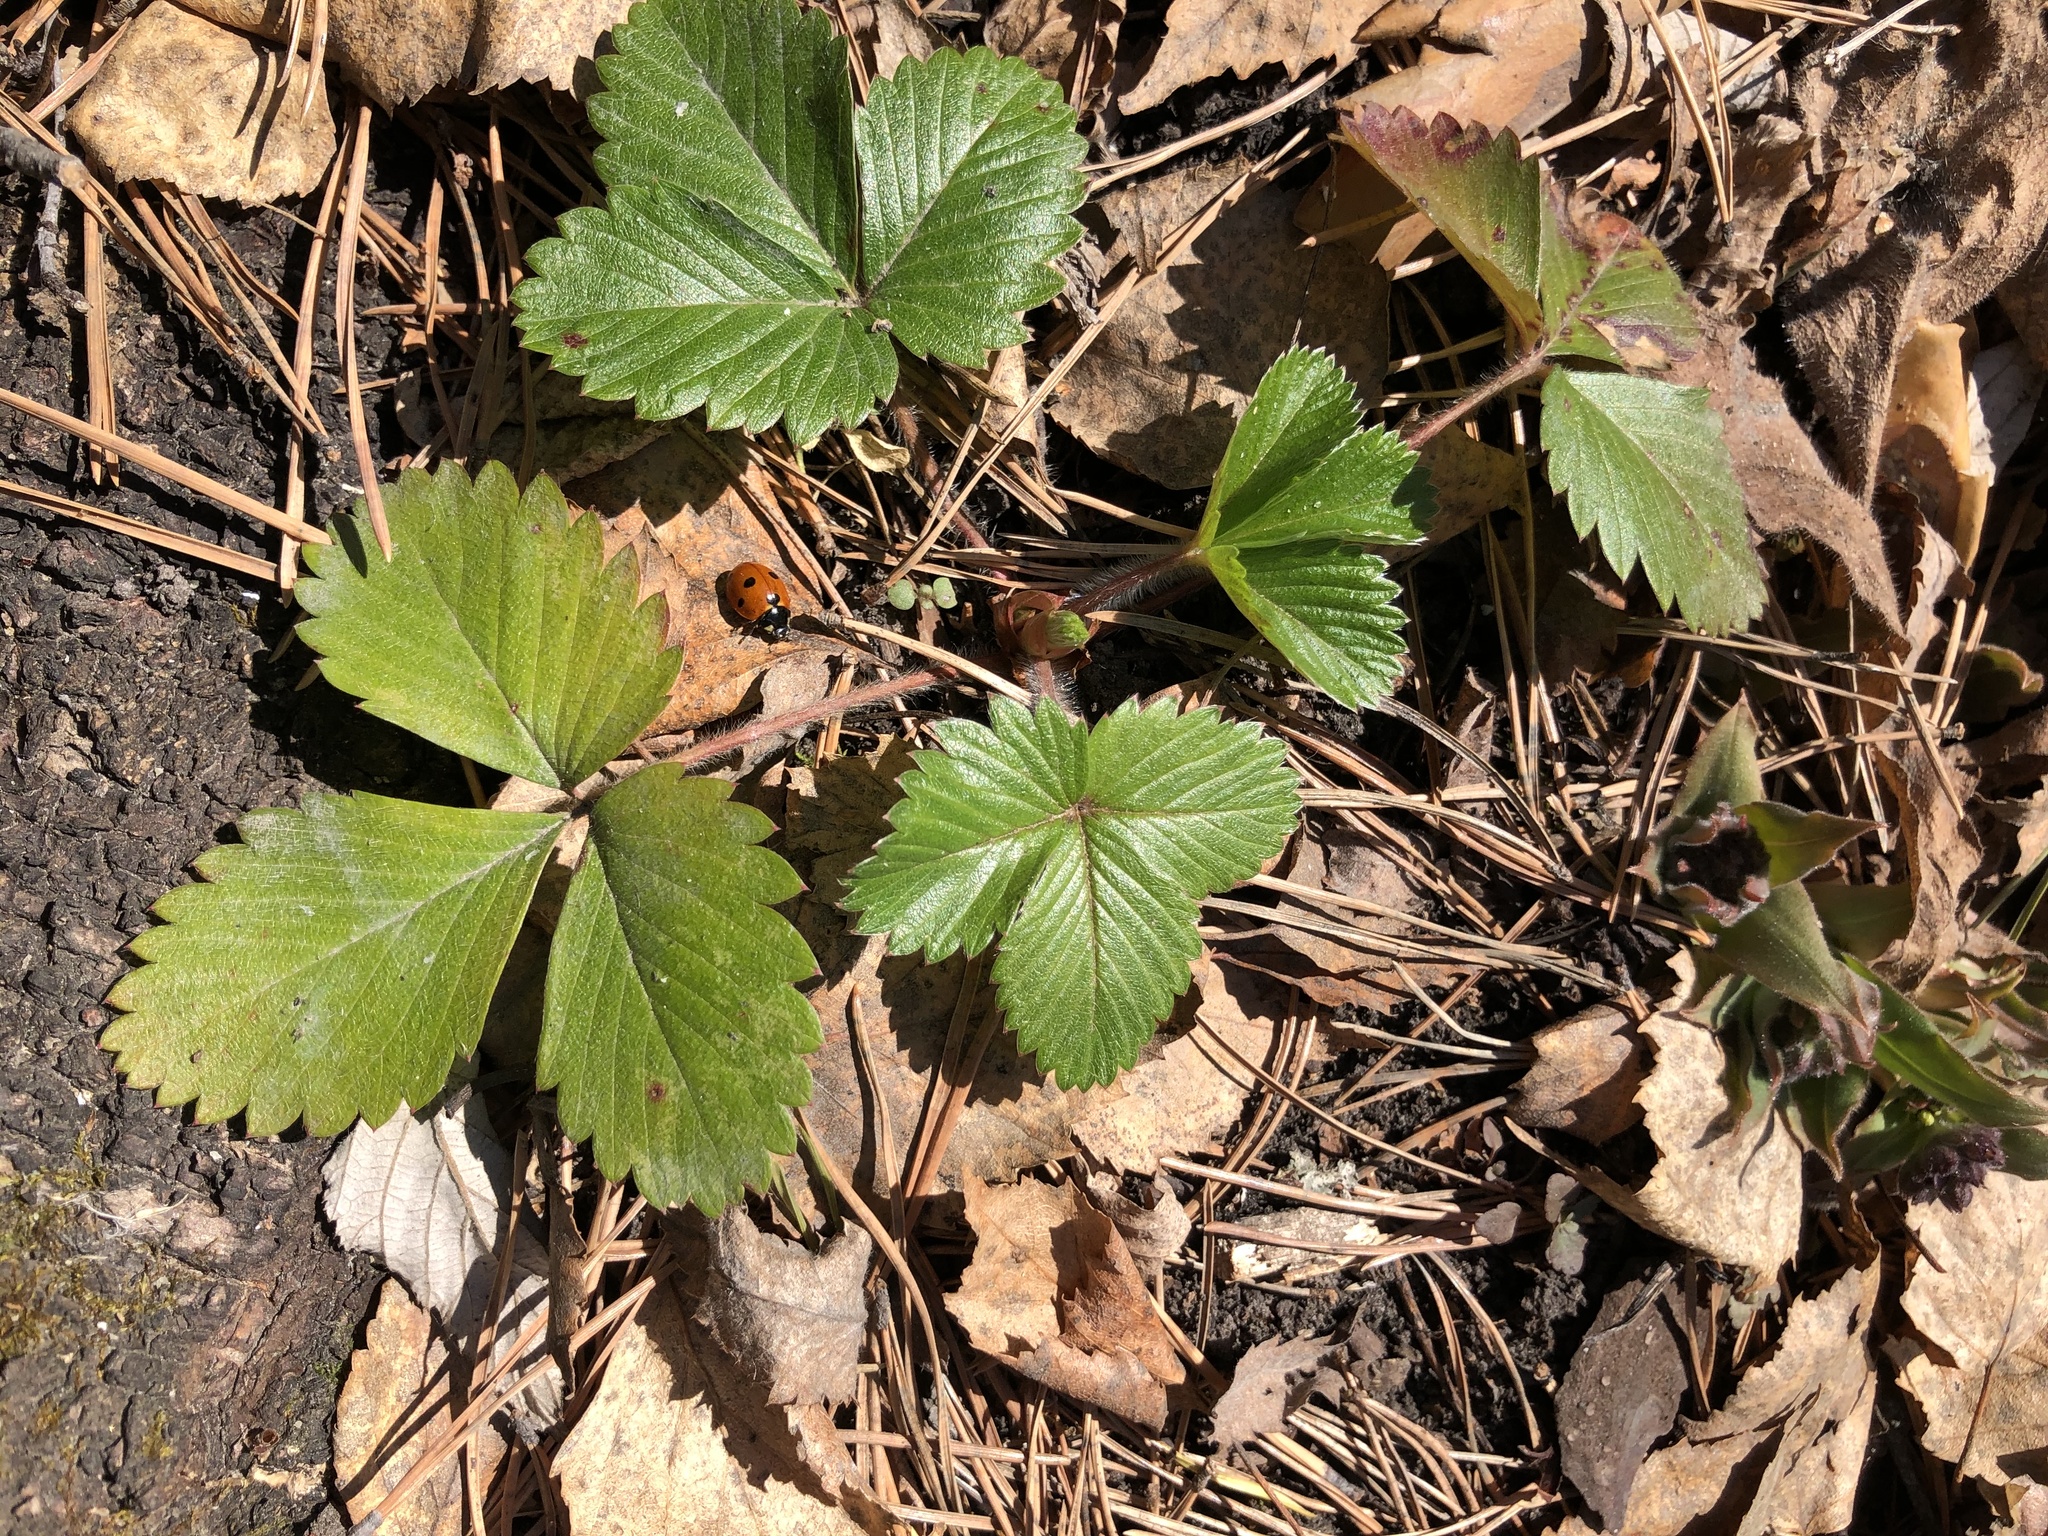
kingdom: Plantae
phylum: Tracheophyta
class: Magnoliopsida
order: Rosales
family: Rosaceae
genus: Fragaria
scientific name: Fragaria vesca
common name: Wild strawberry
